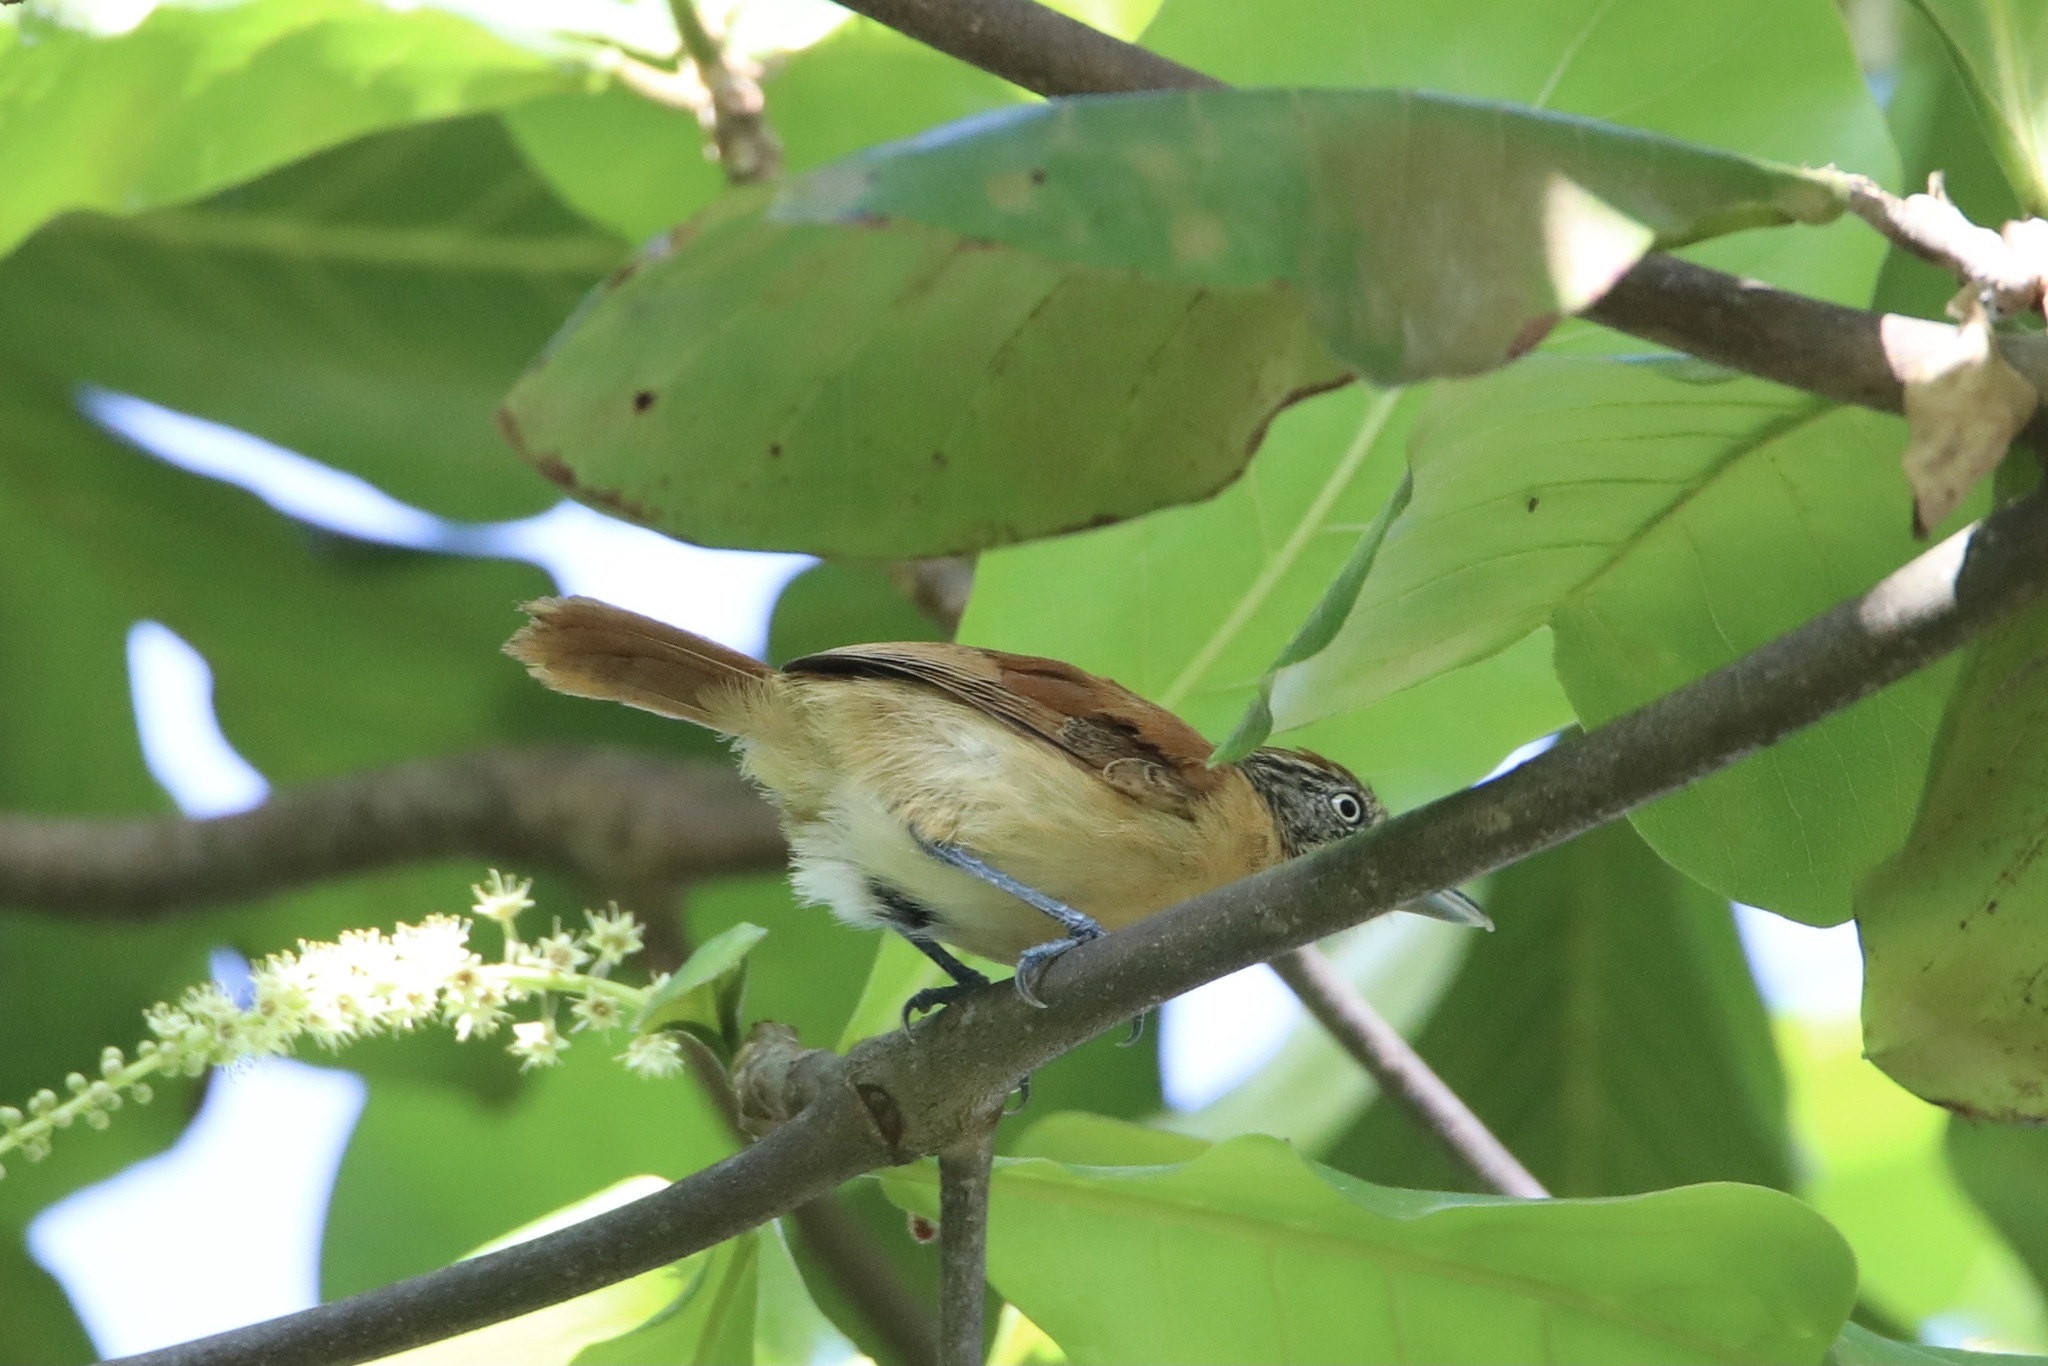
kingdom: Animalia
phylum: Chordata
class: Aves
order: Passeriformes
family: Thamnophilidae
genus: Thamnophilus
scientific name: Thamnophilus doliatus
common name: Barred antshrike
